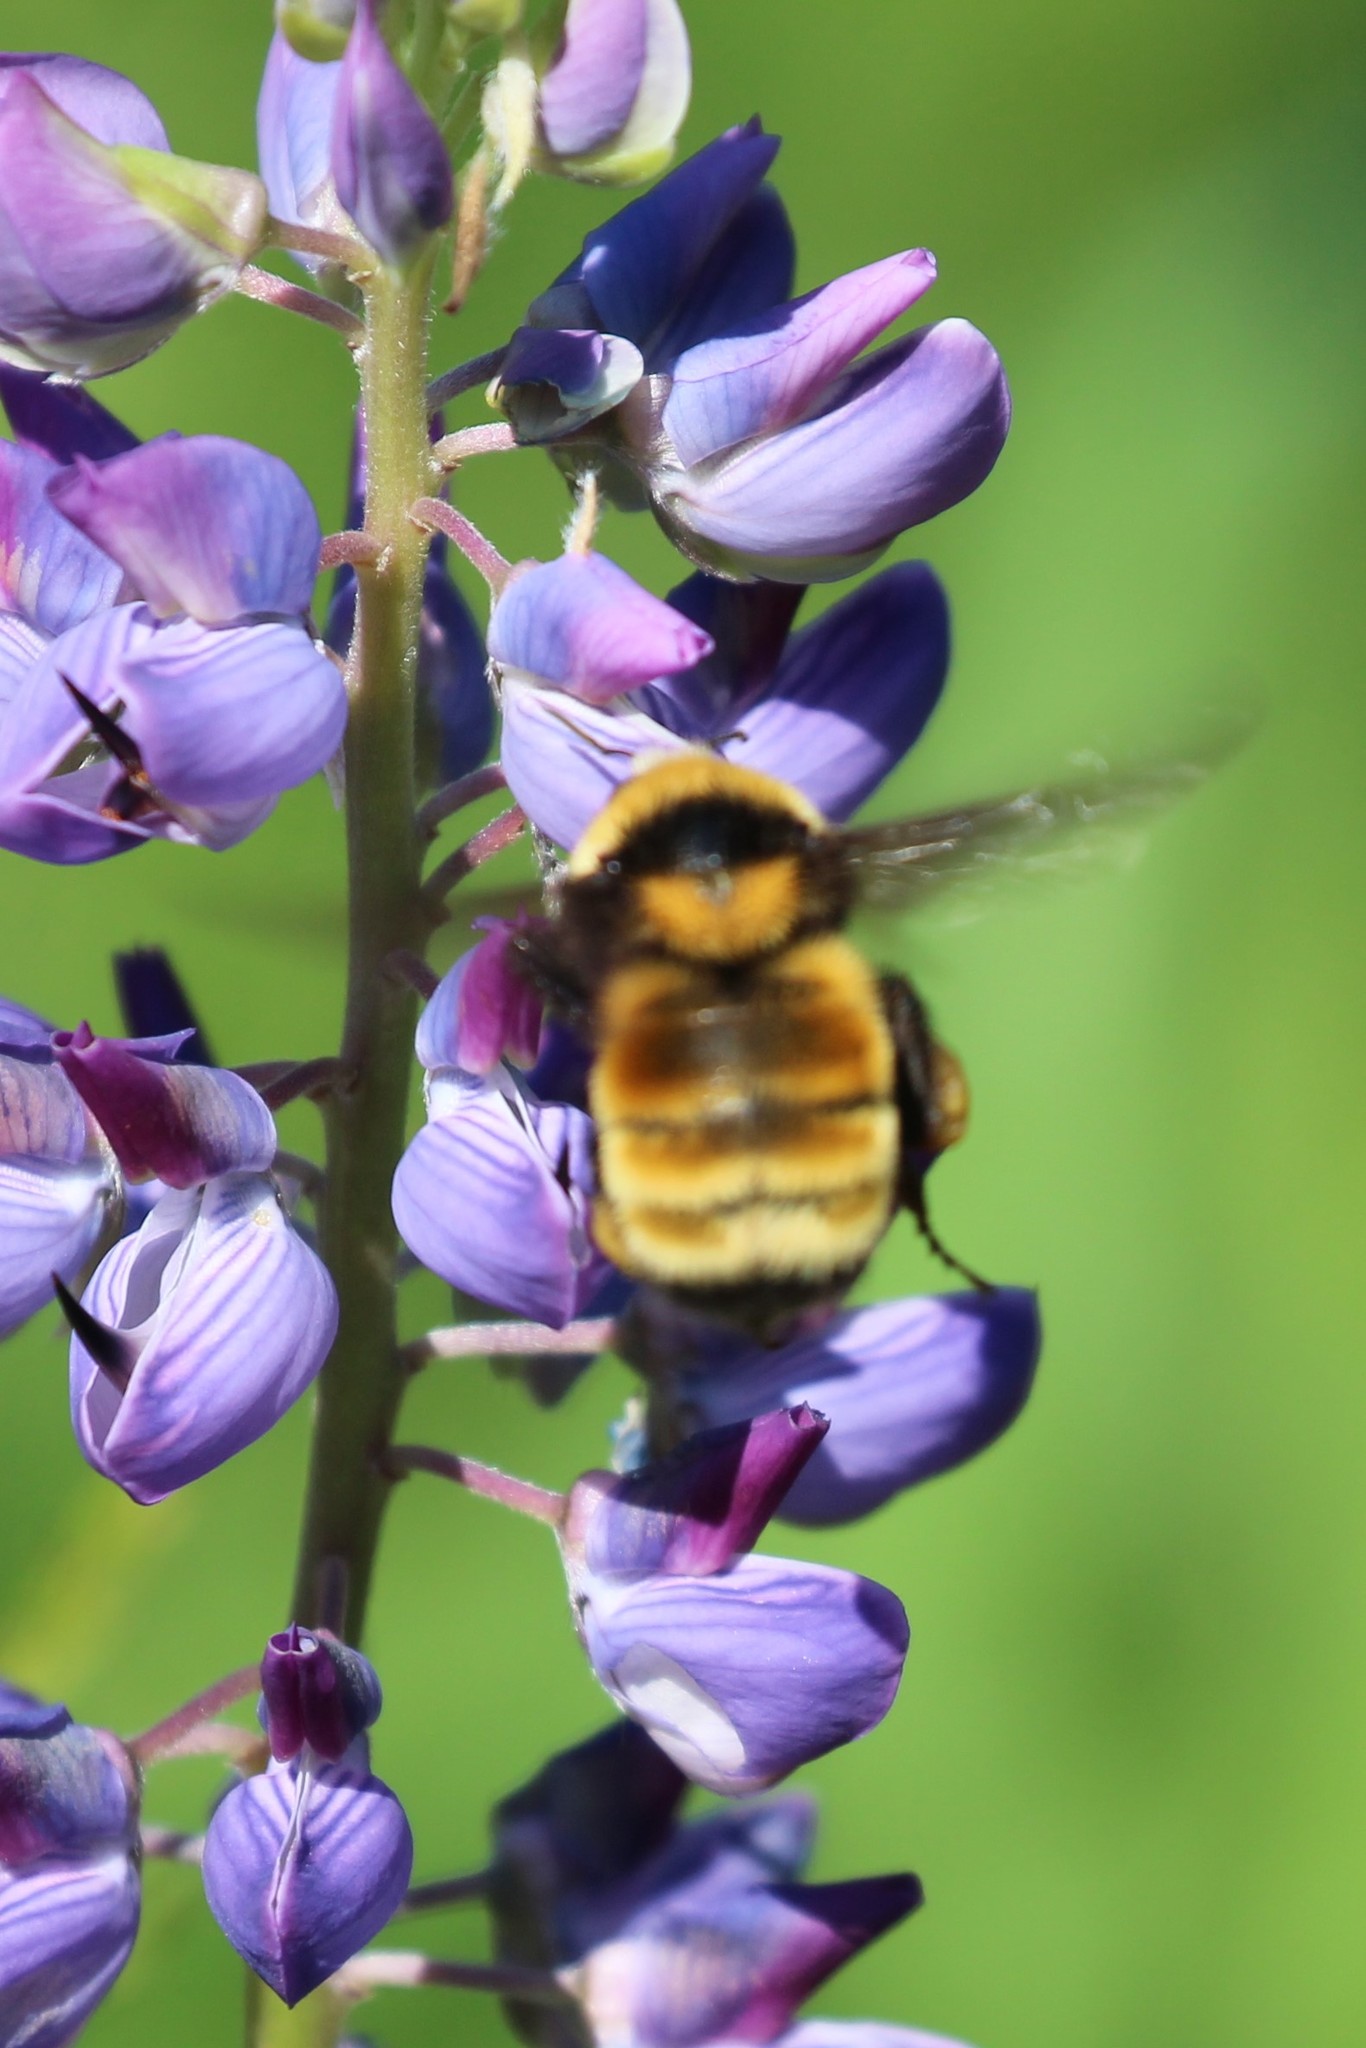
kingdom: Animalia
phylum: Arthropoda
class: Insecta
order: Hymenoptera
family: Apidae
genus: Bombus
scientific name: Bombus borealis
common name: Northern amber bumble bee
